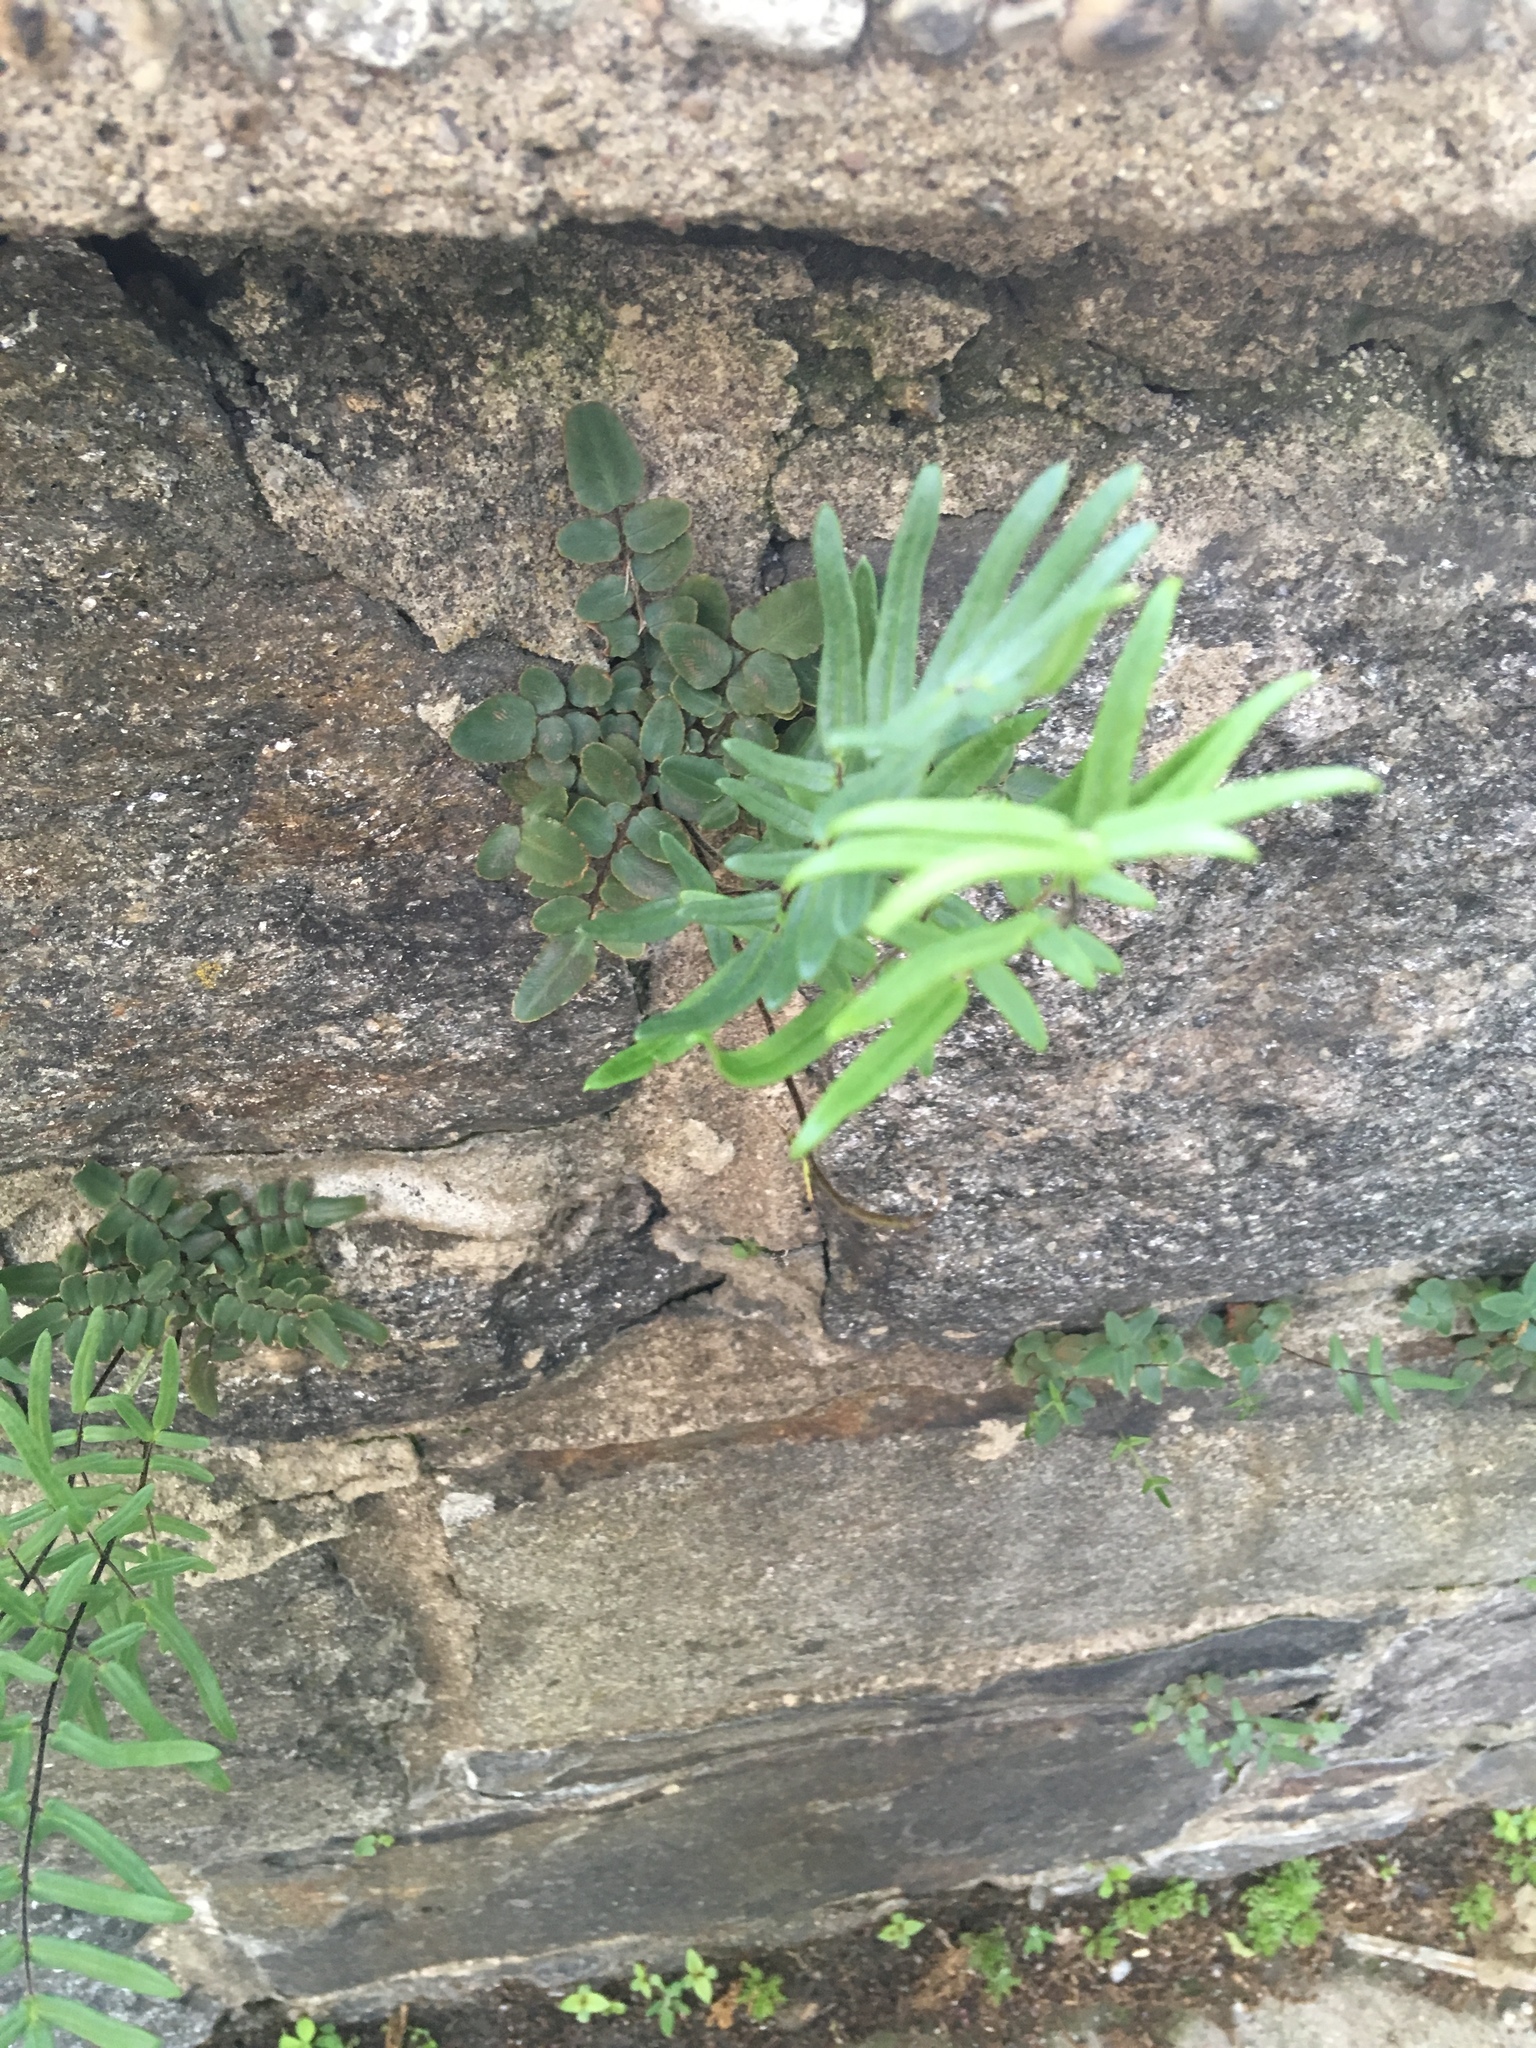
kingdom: Plantae
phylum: Tracheophyta
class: Polypodiopsida
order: Polypodiales
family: Pteridaceae
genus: Pellaea
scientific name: Pellaea atropurpurea
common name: Hairy cliffbrake
